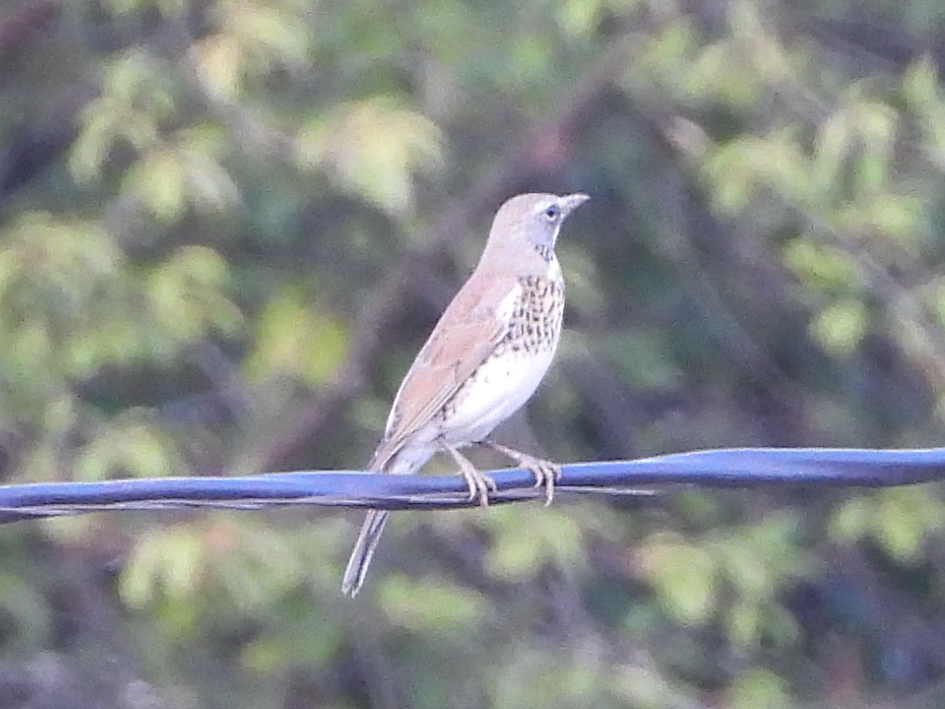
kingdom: Animalia
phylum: Chordata
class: Aves
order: Passeriformes
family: Turdidae
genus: Turdus
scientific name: Turdus pilaris
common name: Fieldfare
